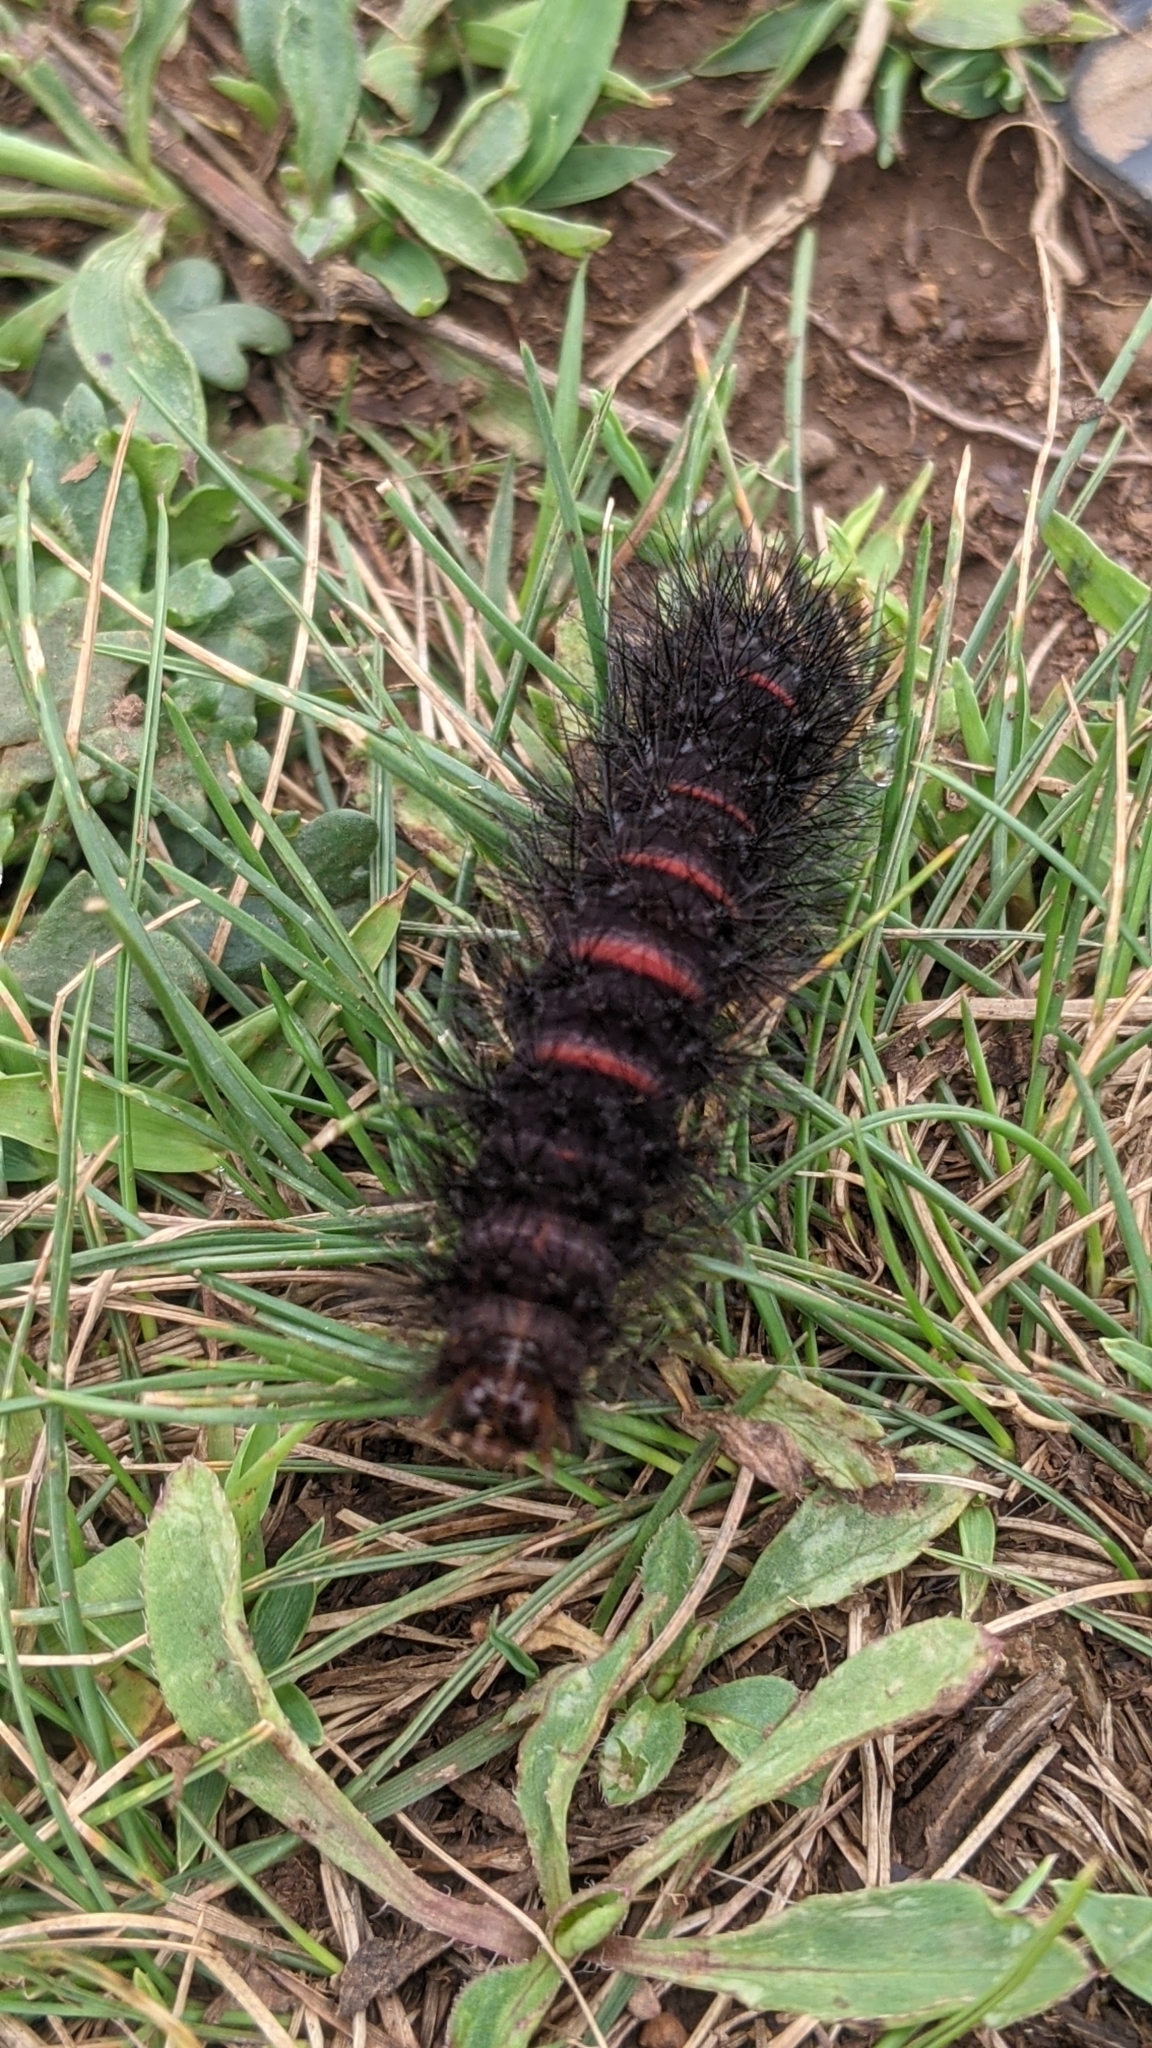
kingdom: Animalia
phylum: Arthropoda
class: Insecta
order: Lepidoptera
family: Erebidae
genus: Hypercompe
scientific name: Hypercompe scribonia
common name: Giant leopard moth
